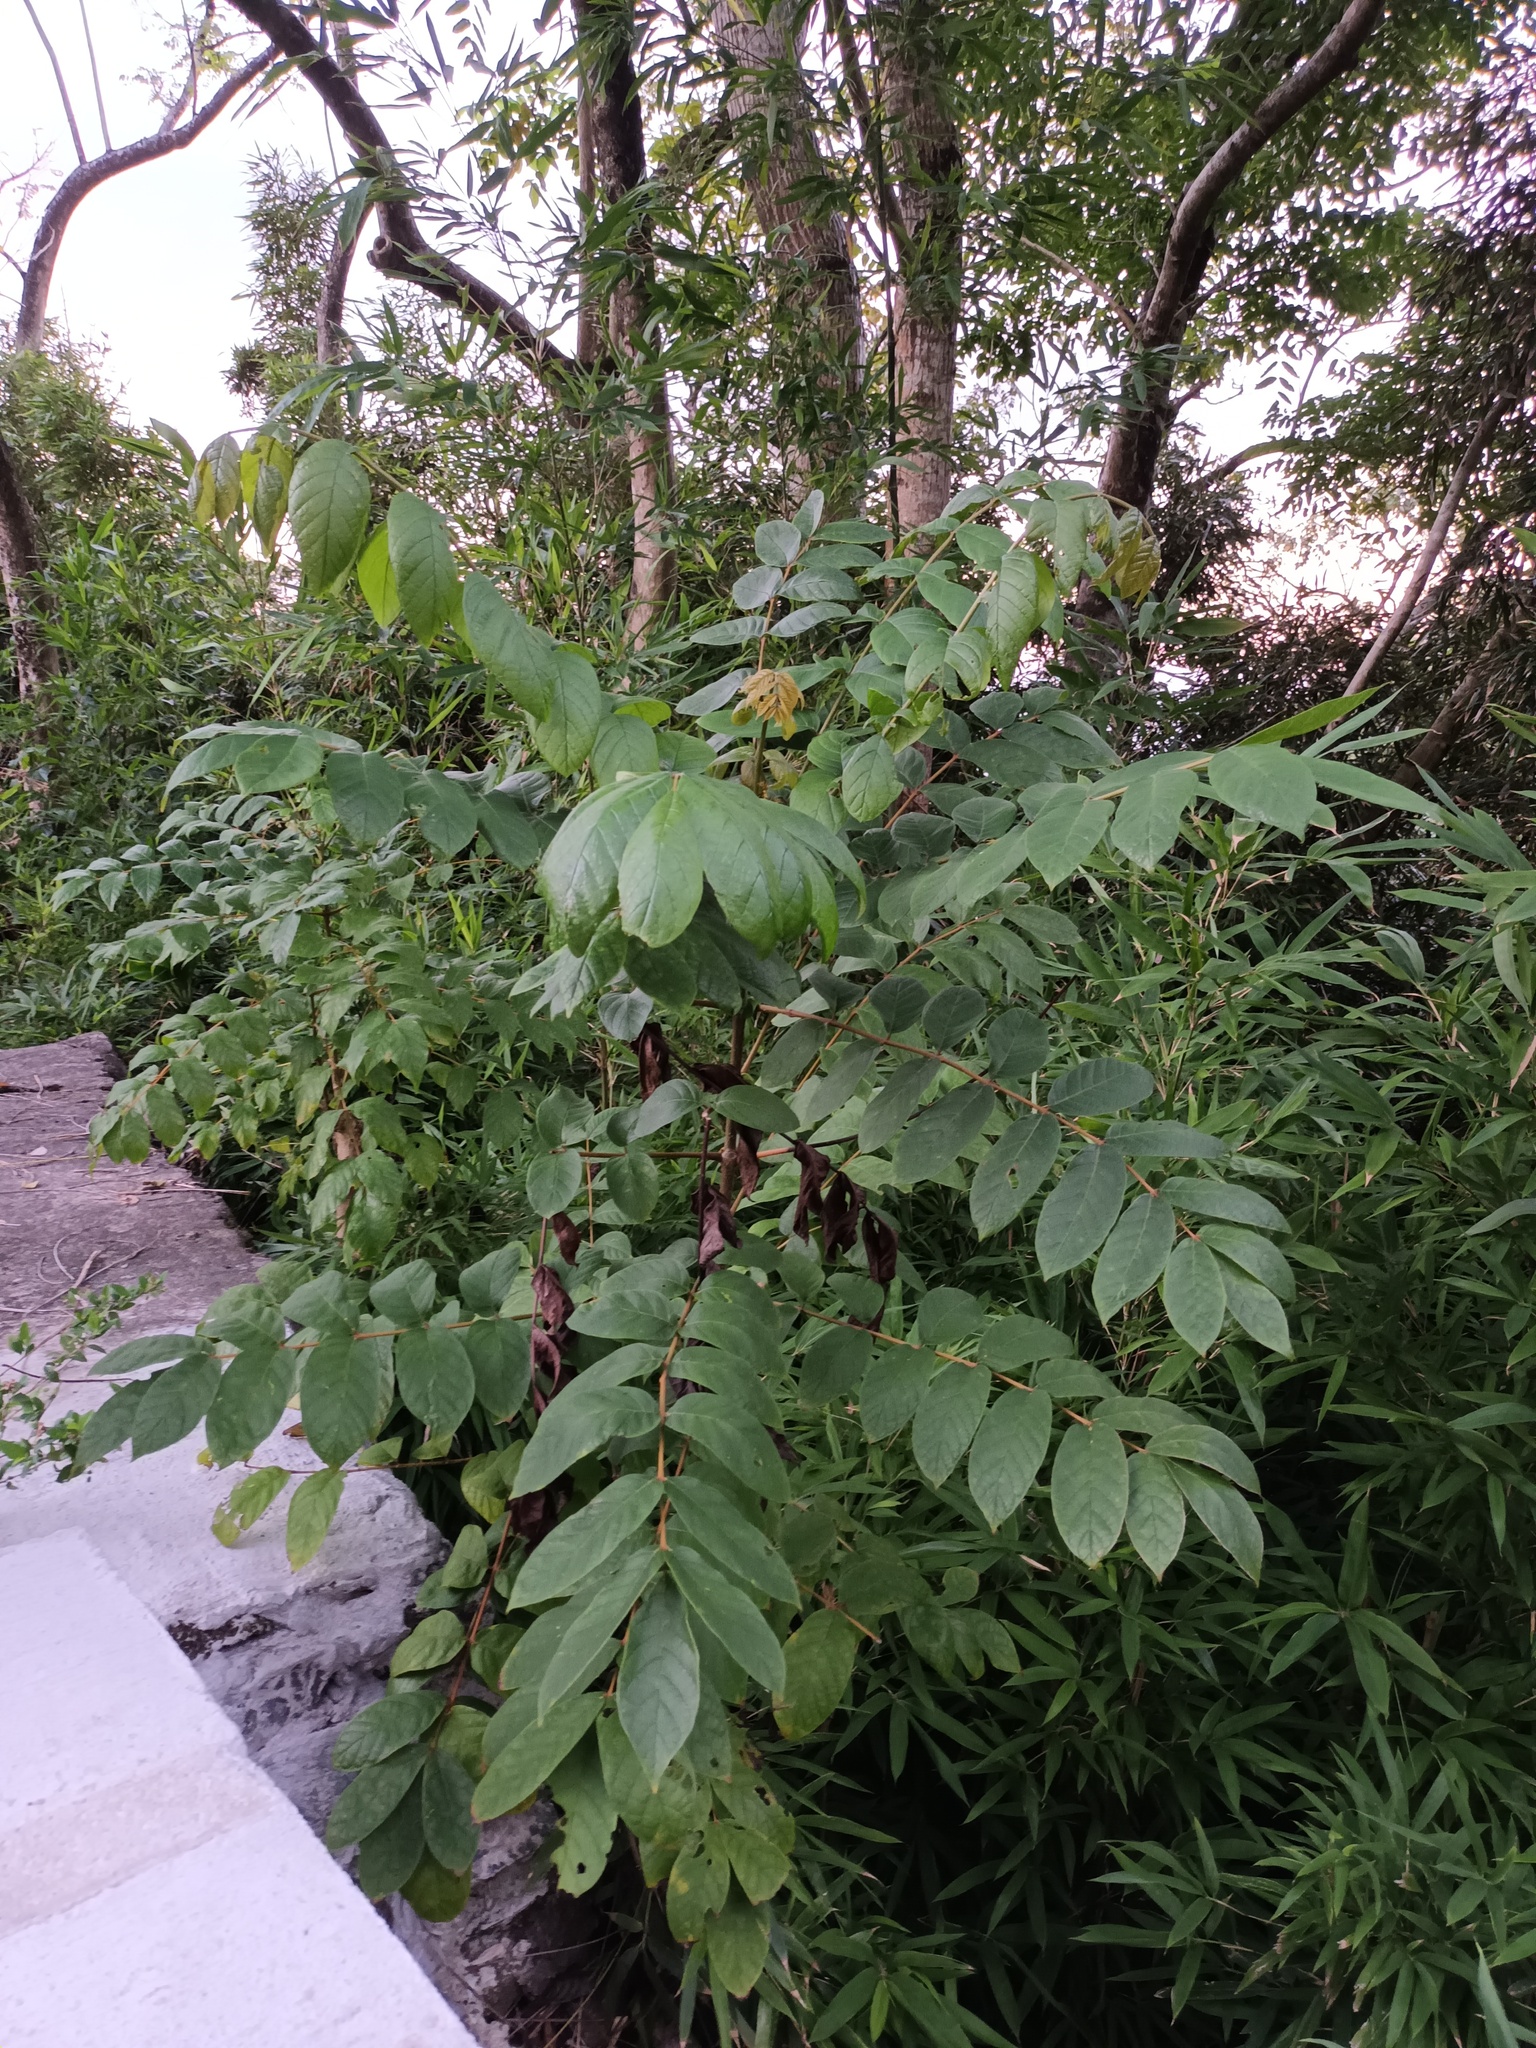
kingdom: Plantae
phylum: Tracheophyta
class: Magnoliopsida
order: Lamiales
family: Bignoniaceae
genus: Spathodea
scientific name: Spathodea campanulata
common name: African tuliptree
